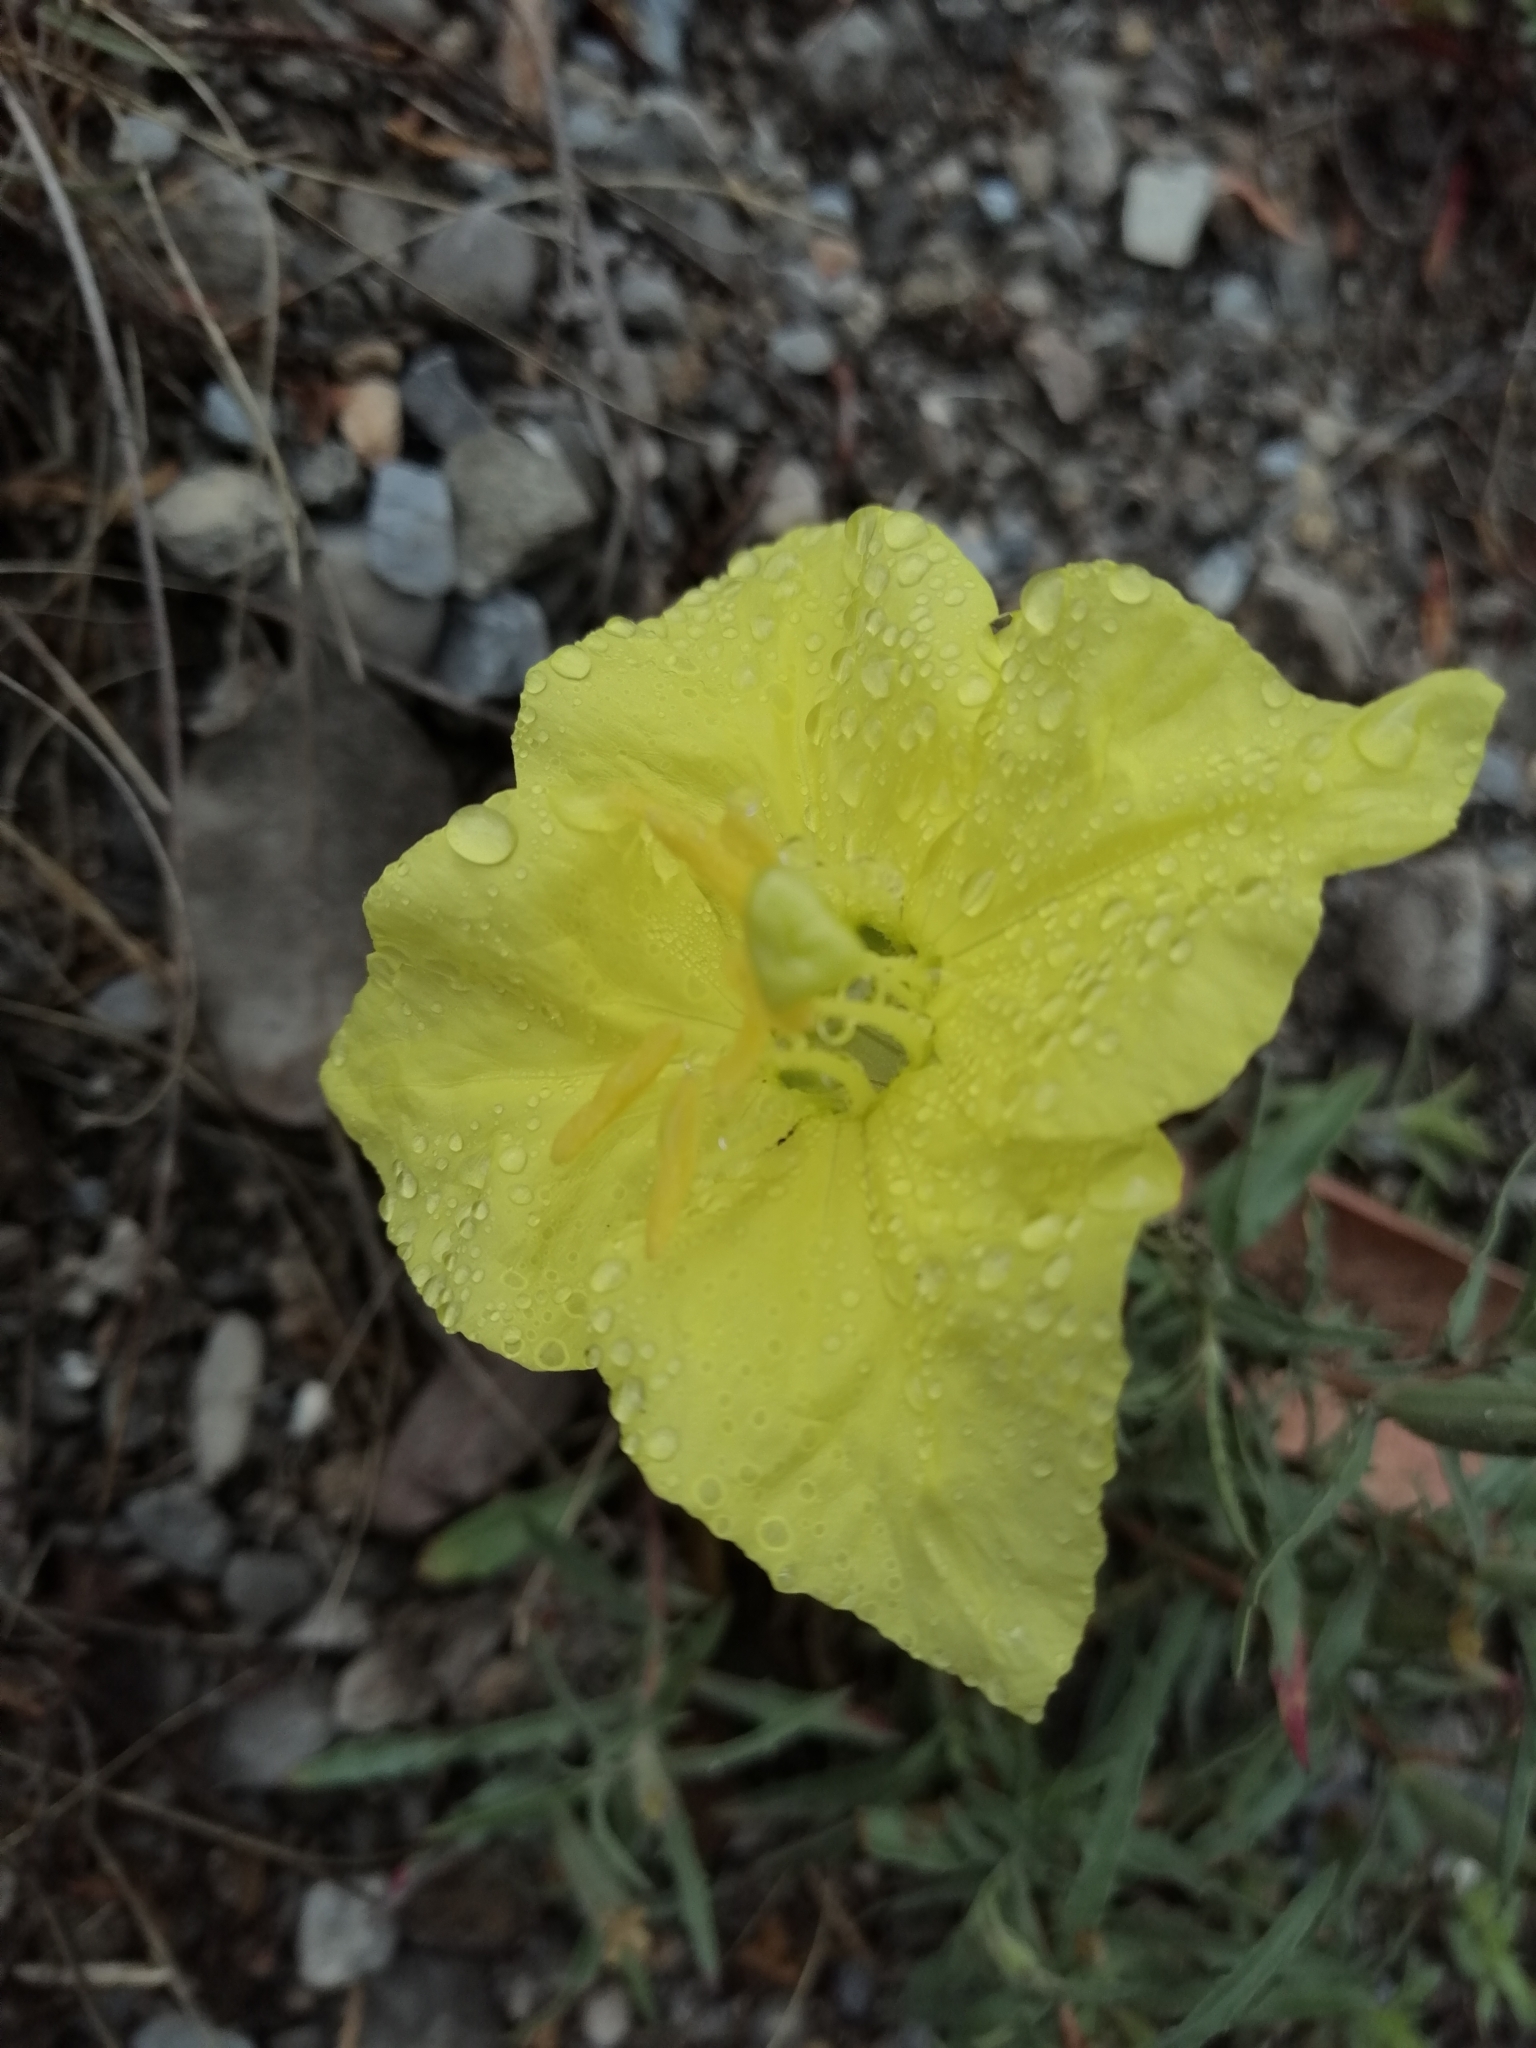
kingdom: Plantae
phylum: Tracheophyta
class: Magnoliopsida
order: Myrtales
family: Onagraceae
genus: Oenothera
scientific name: Oenothera hartwegii
